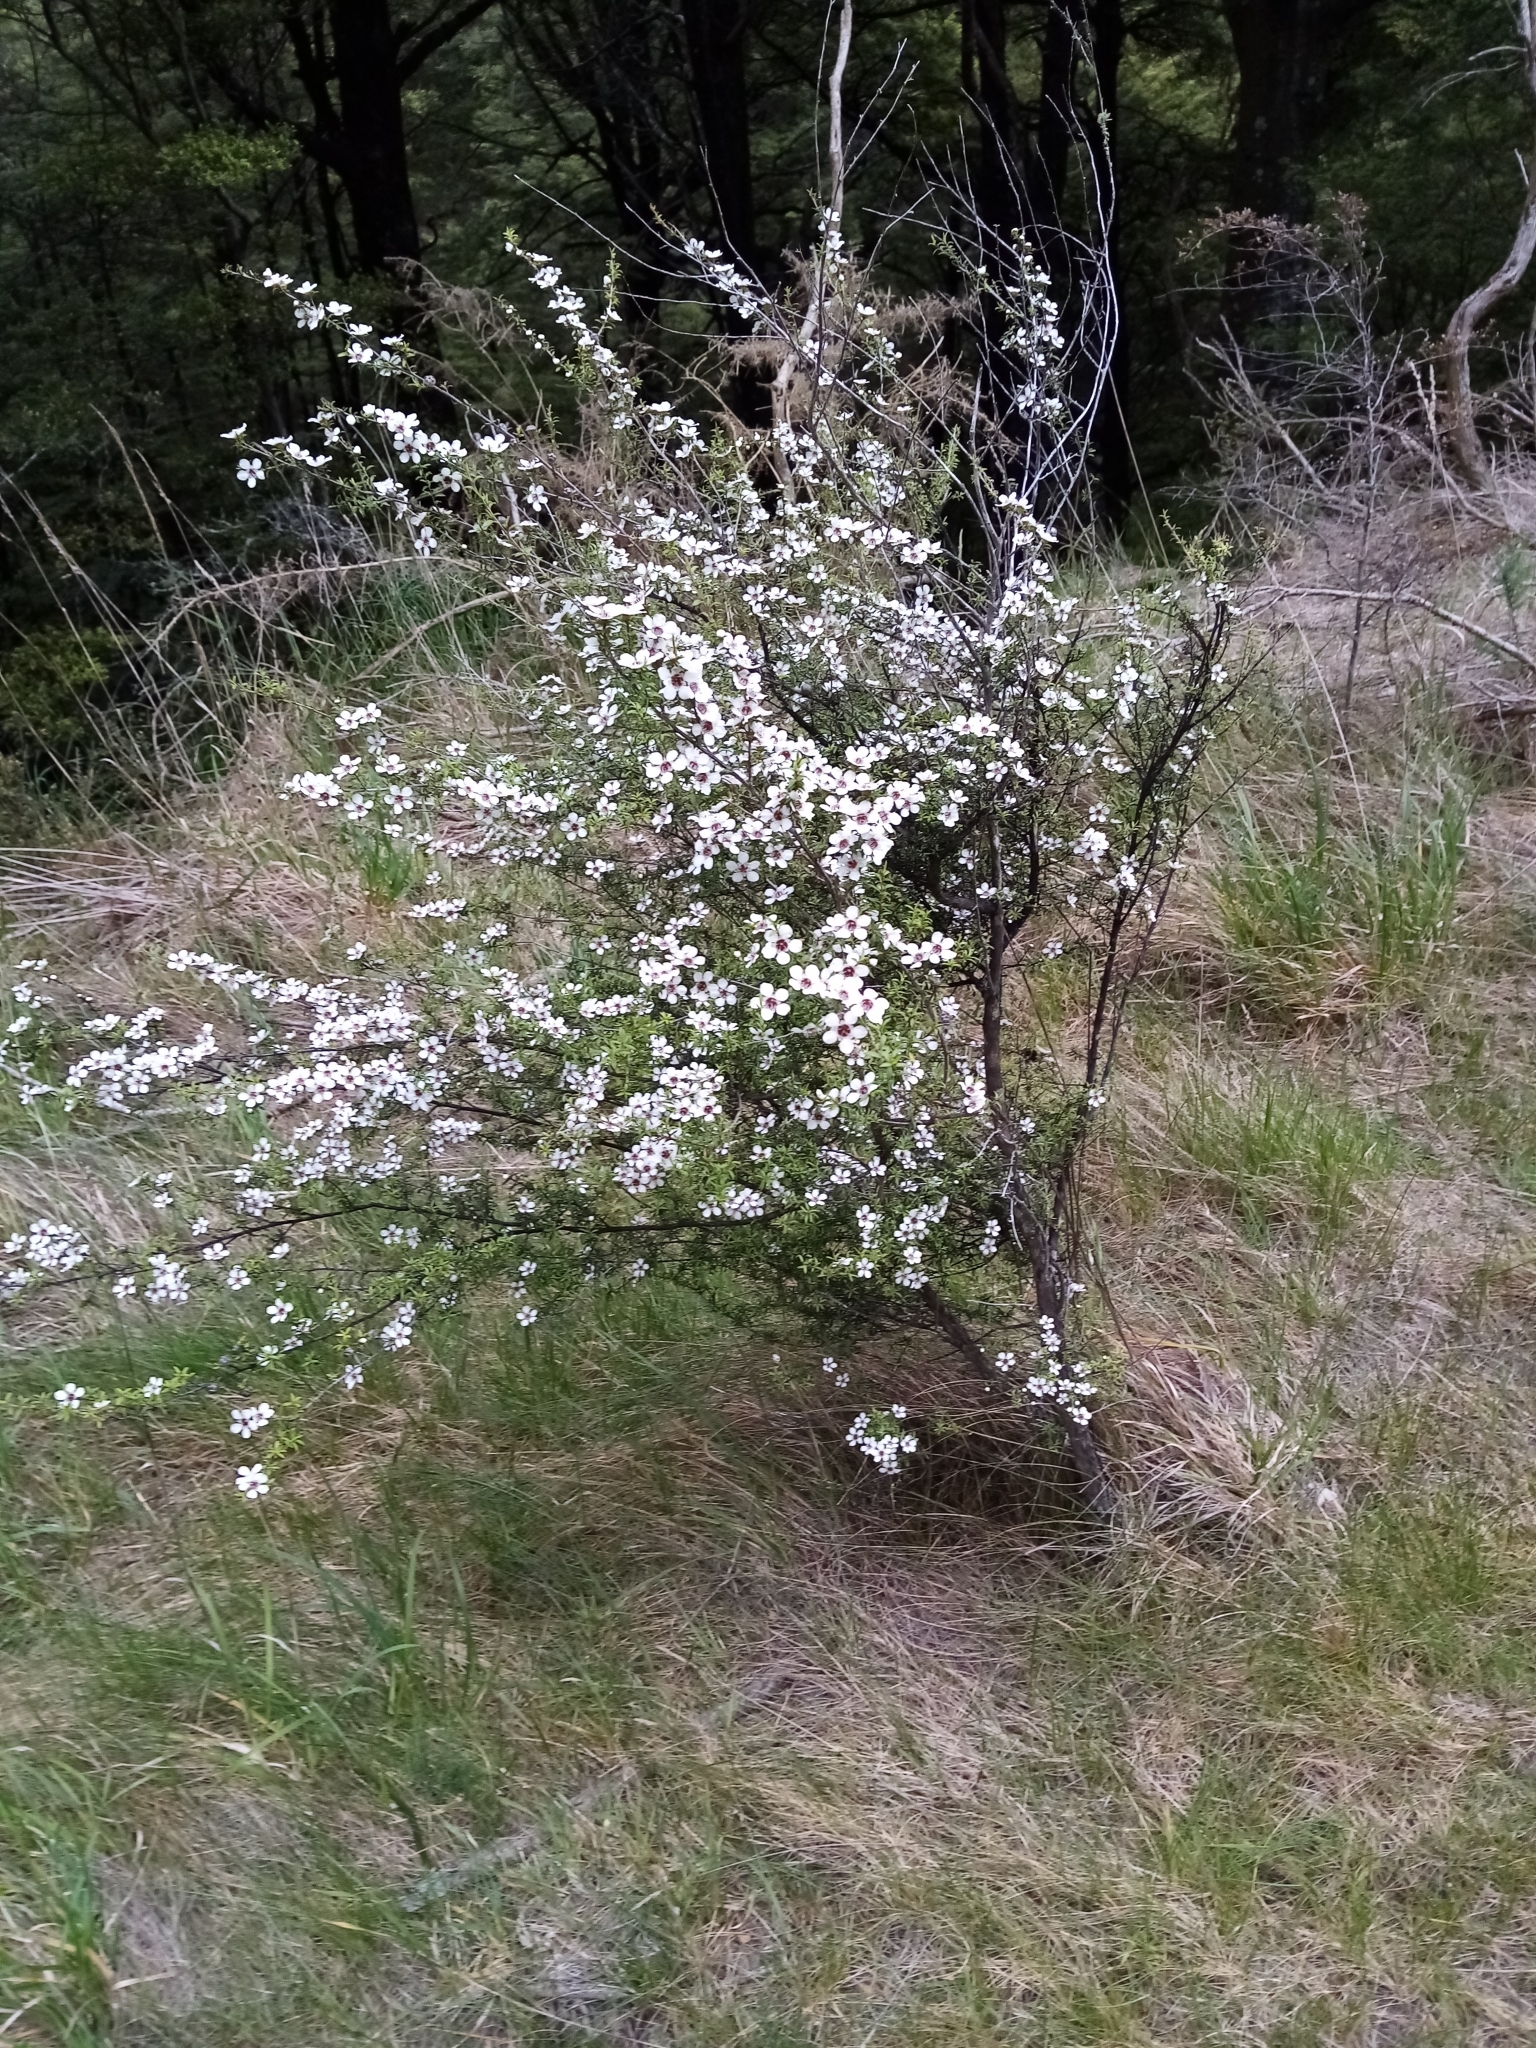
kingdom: Plantae
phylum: Tracheophyta
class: Magnoliopsida
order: Myrtales
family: Myrtaceae
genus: Leptospermum
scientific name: Leptospermum scoparium
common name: Broom tea-tree
